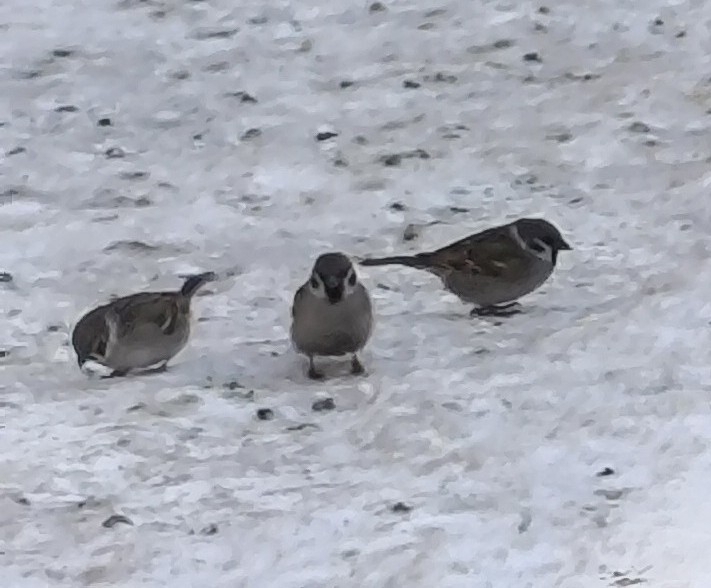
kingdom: Animalia
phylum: Chordata
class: Aves
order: Passeriformes
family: Passeridae
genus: Passer
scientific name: Passer montanus
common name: Eurasian tree sparrow
